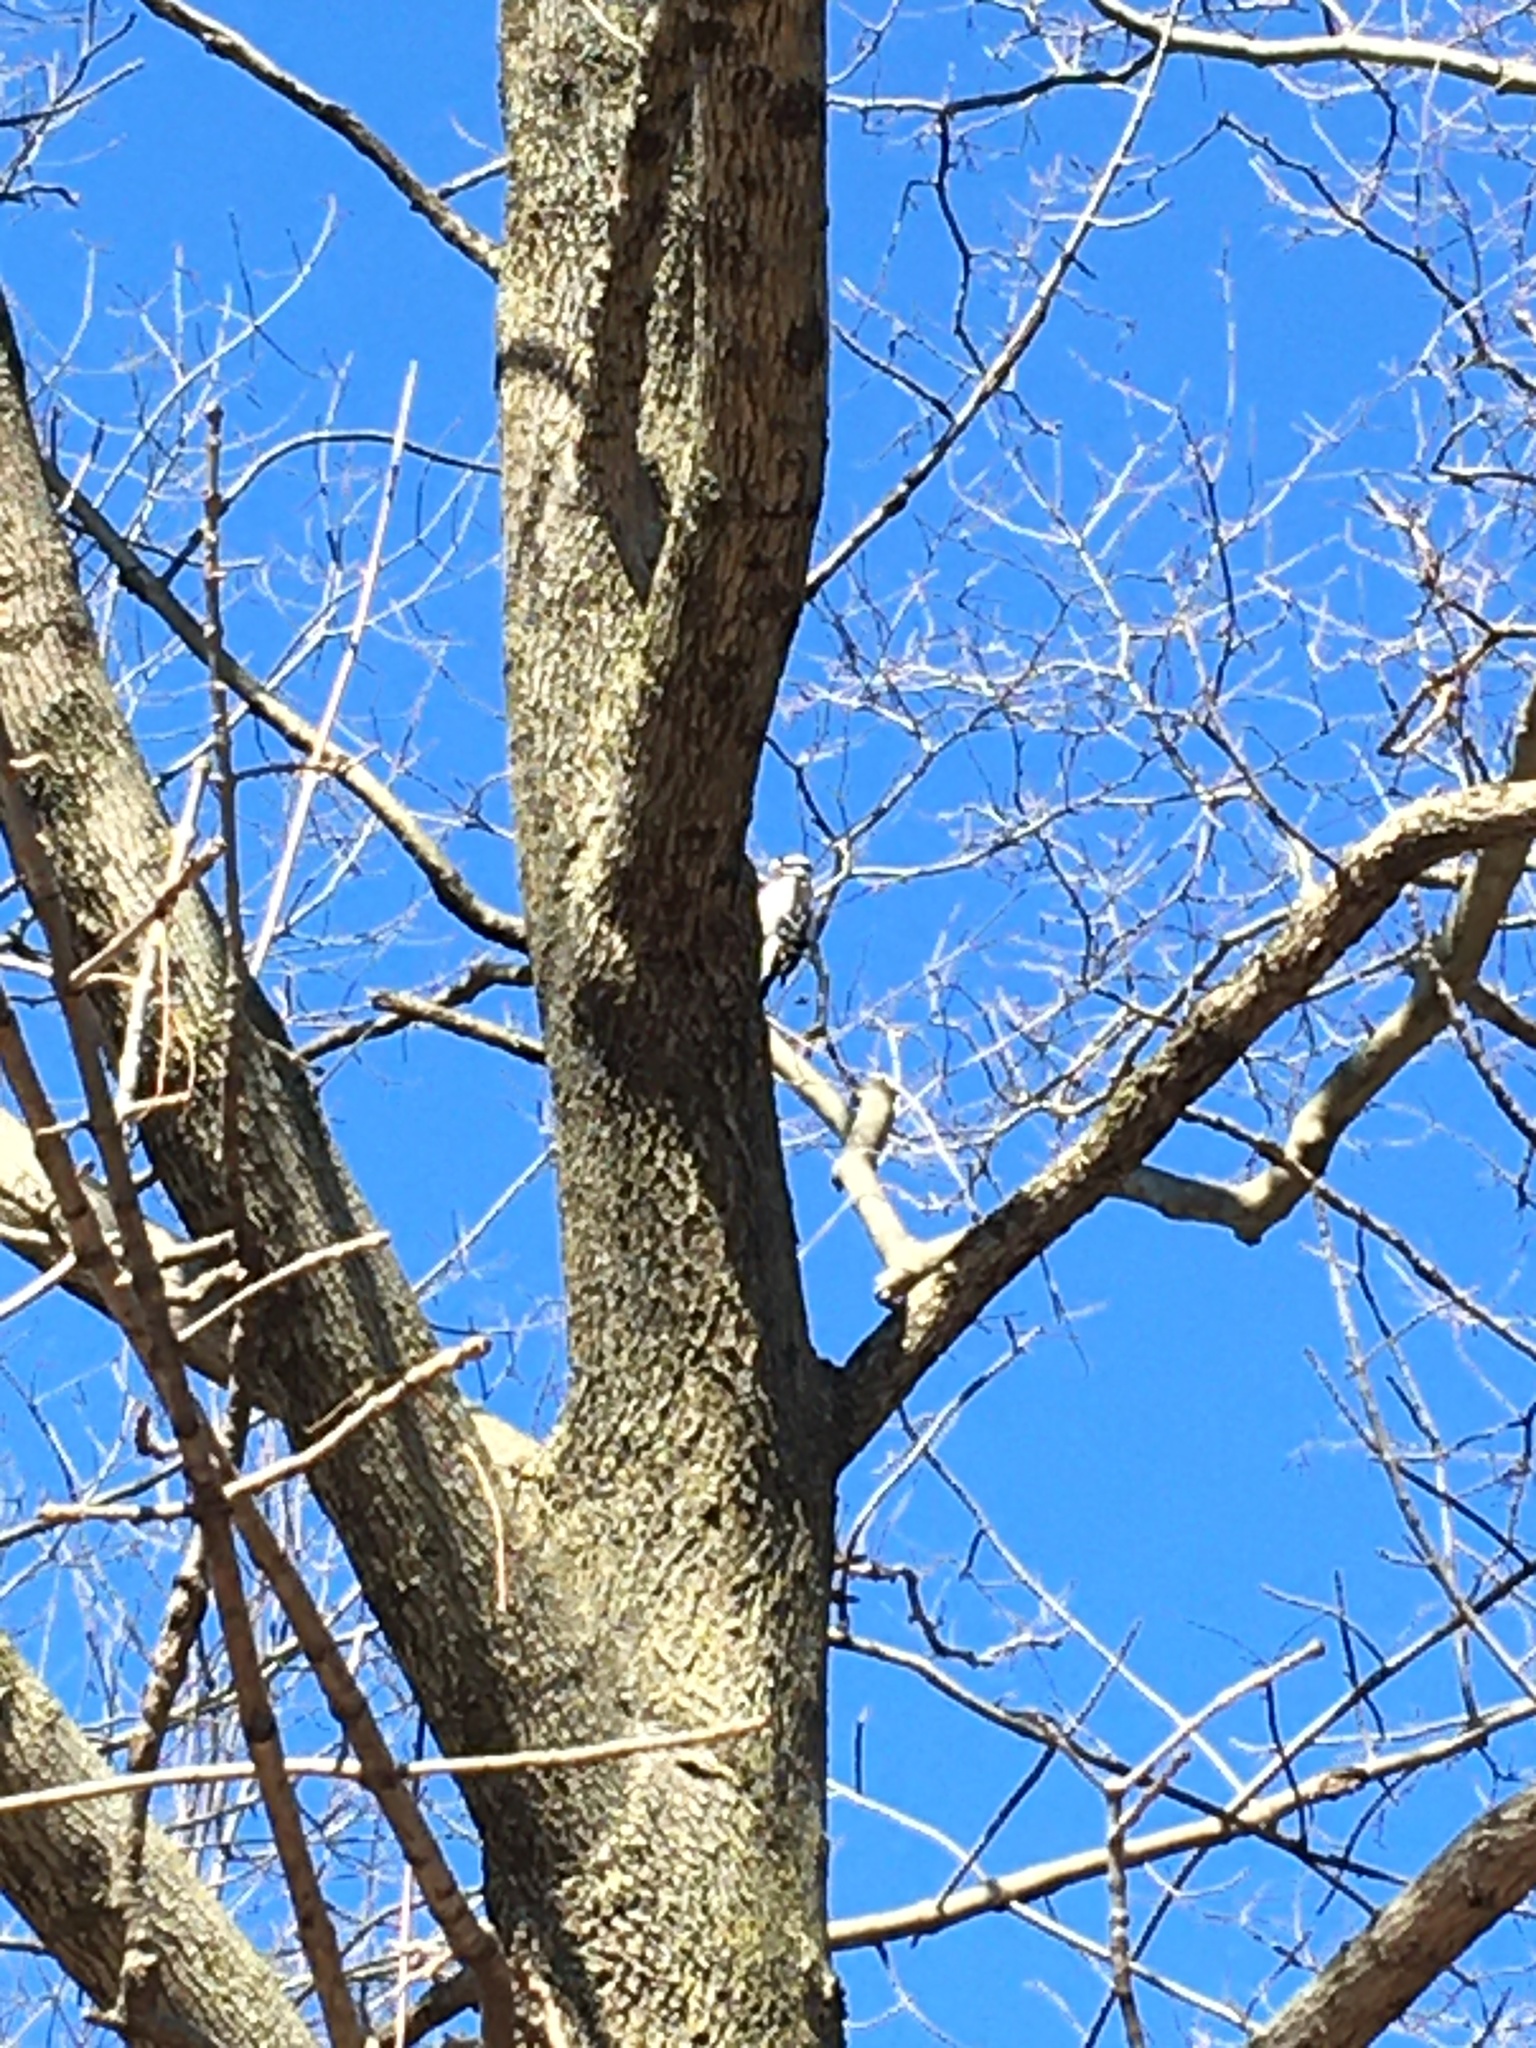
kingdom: Animalia
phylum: Chordata
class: Aves
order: Piciformes
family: Picidae
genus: Dryobates
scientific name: Dryobates pubescens
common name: Downy woodpecker
